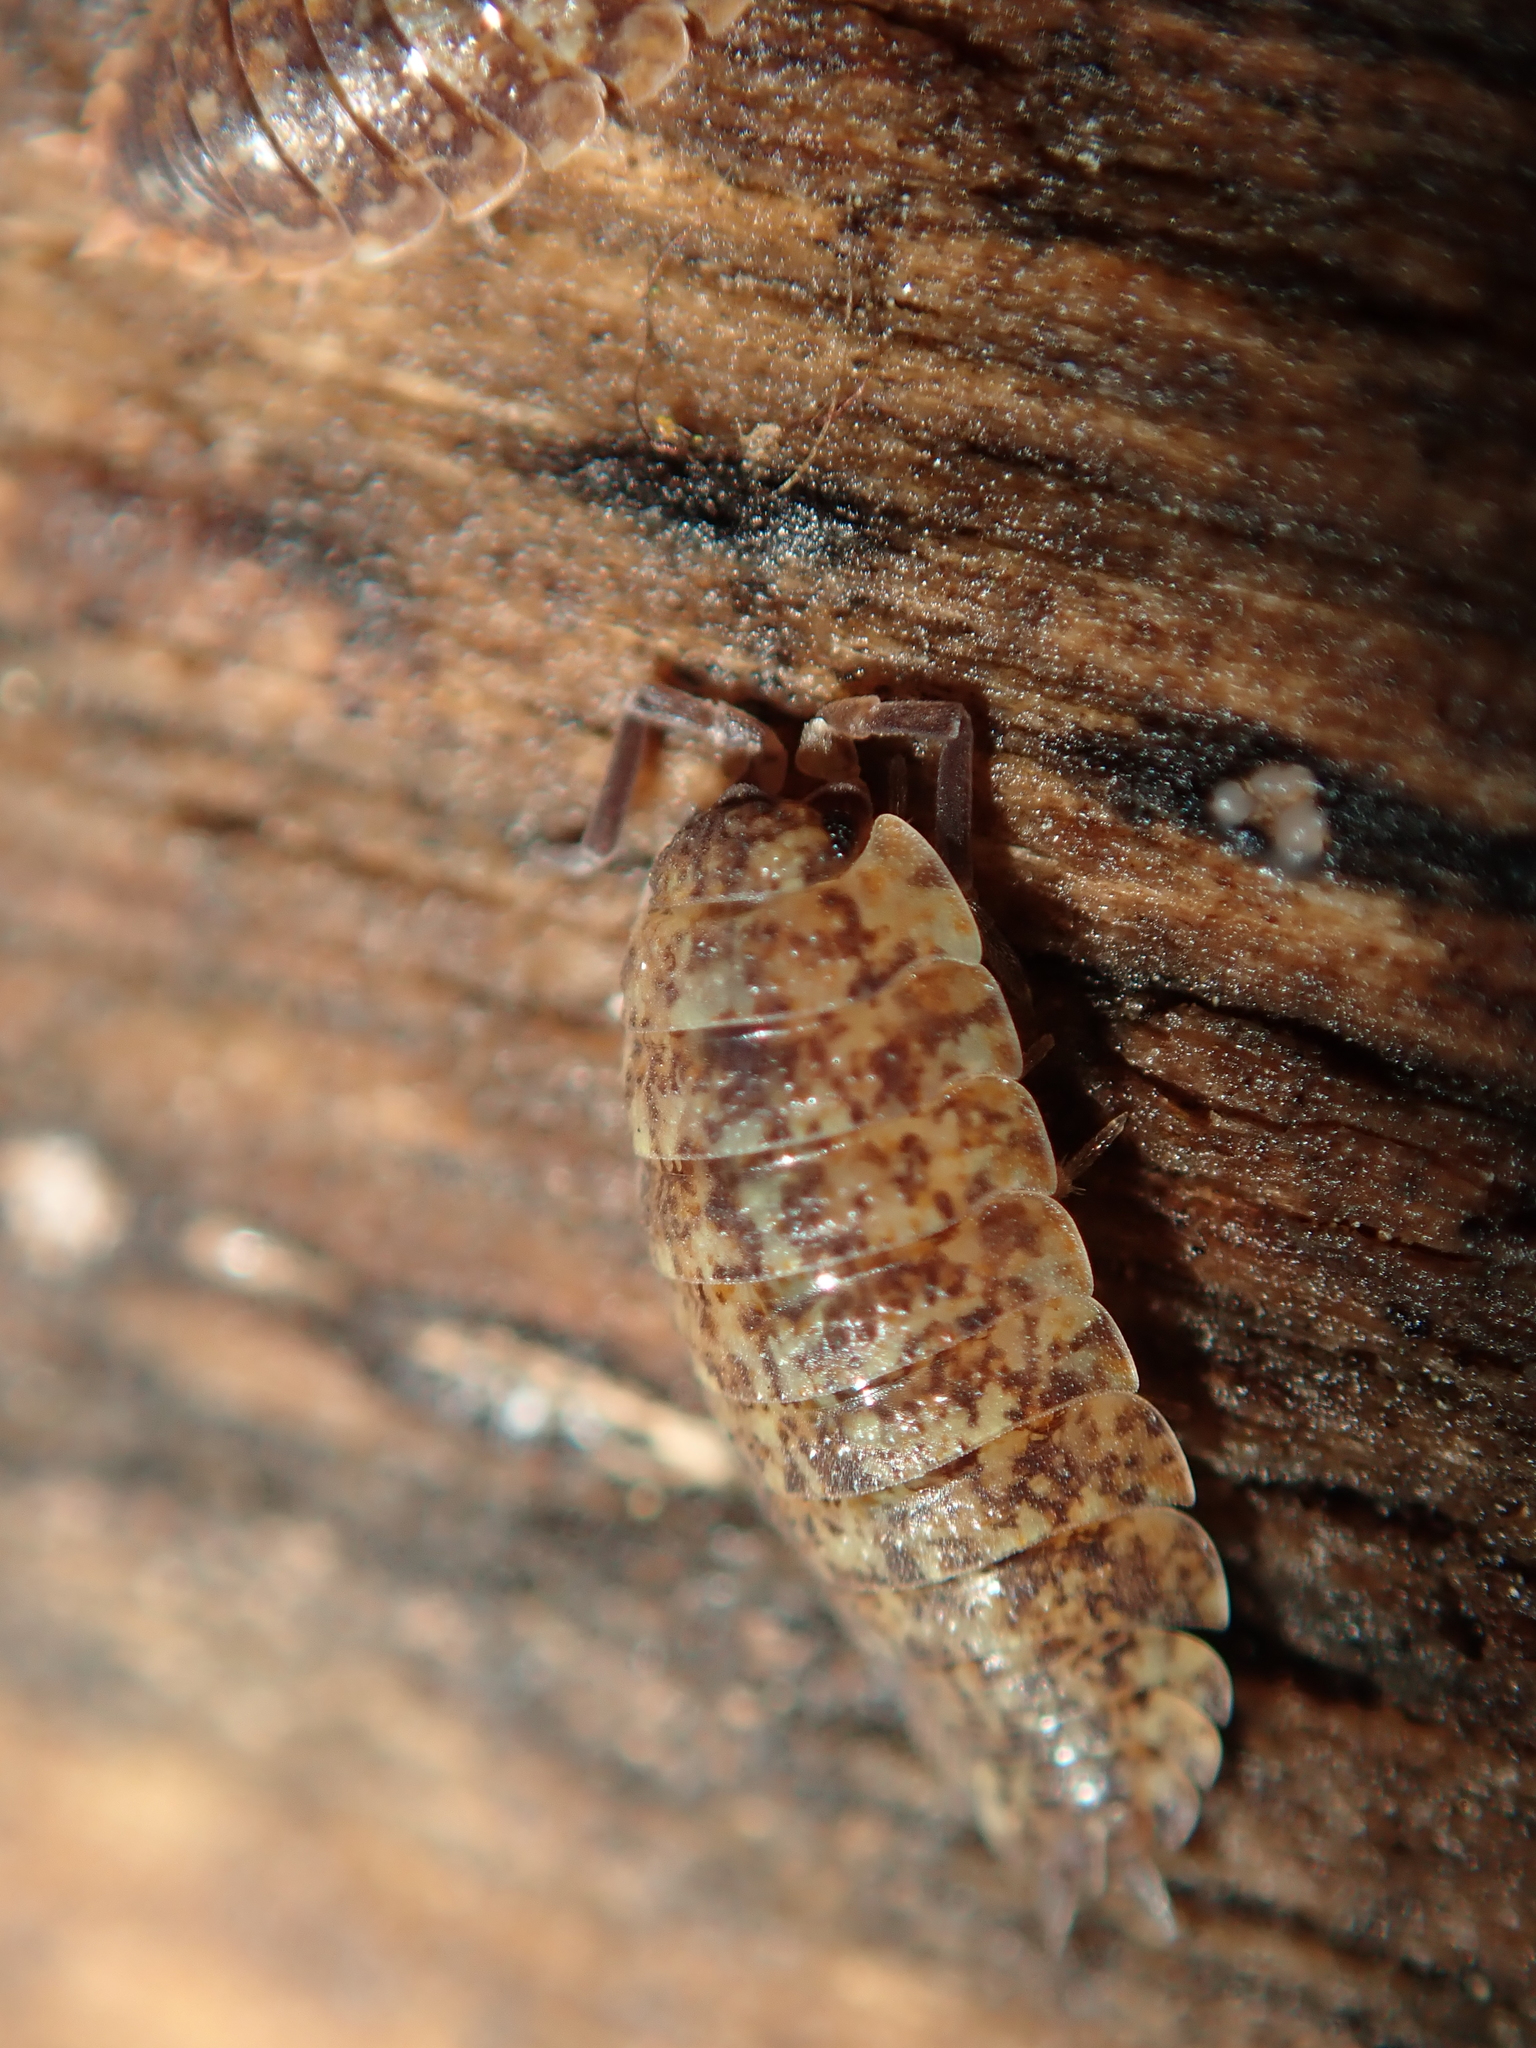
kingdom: Animalia
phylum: Arthropoda
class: Malacostraca
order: Isopoda
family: Porcellionidae
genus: Porcellio
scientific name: Porcellio scaber
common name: Common rough woodlouse
